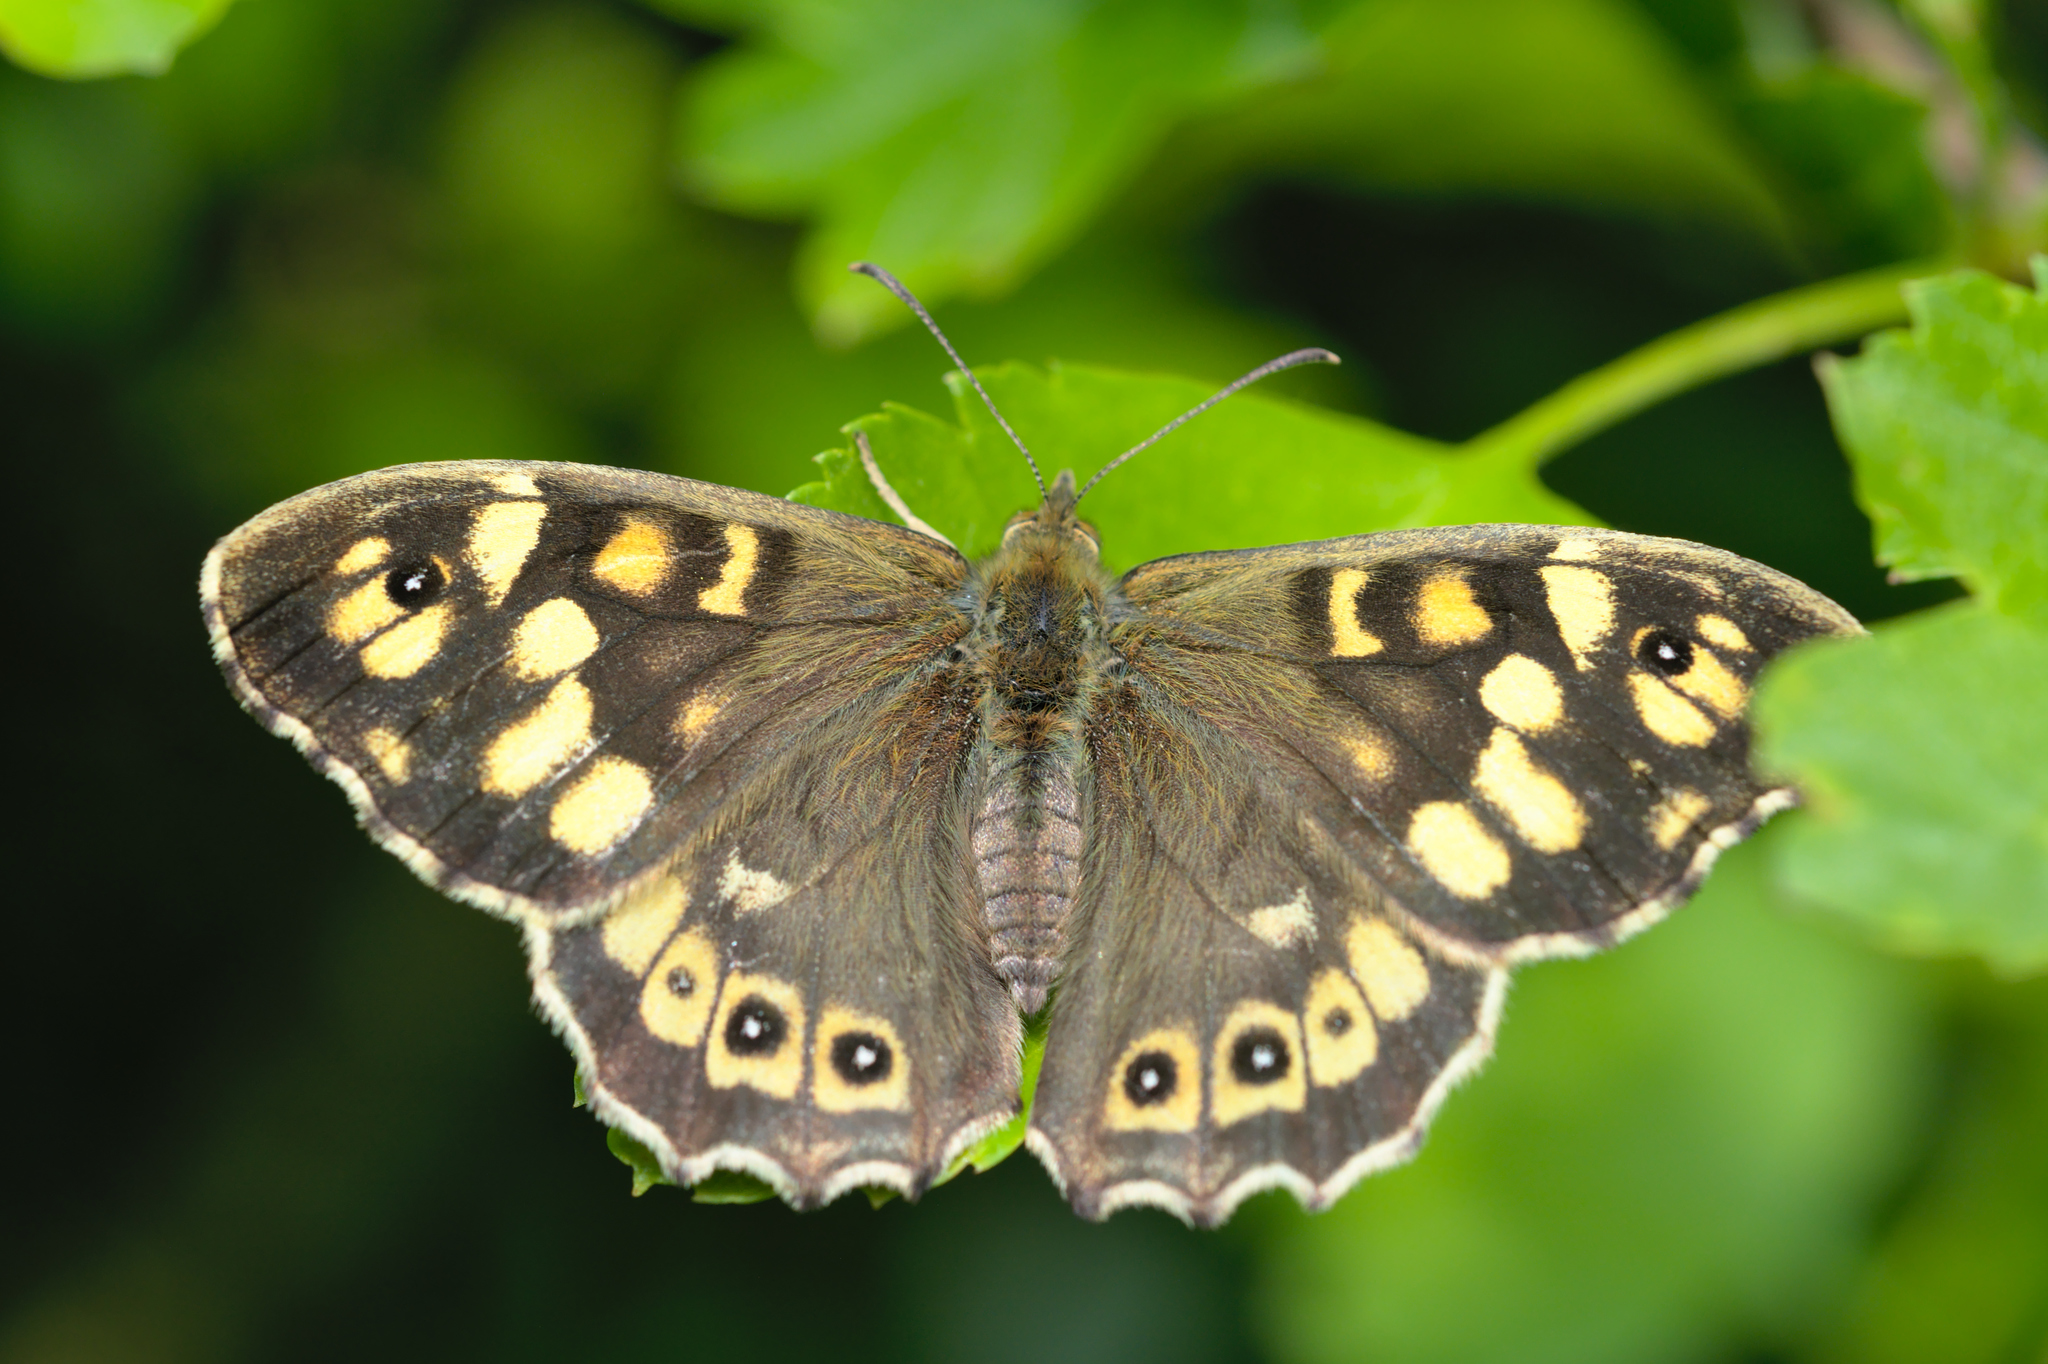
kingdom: Animalia
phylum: Arthropoda
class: Insecta
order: Lepidoptera
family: Nymphalidae
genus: Pararge
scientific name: Pararge aegeria
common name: Speckled wood
